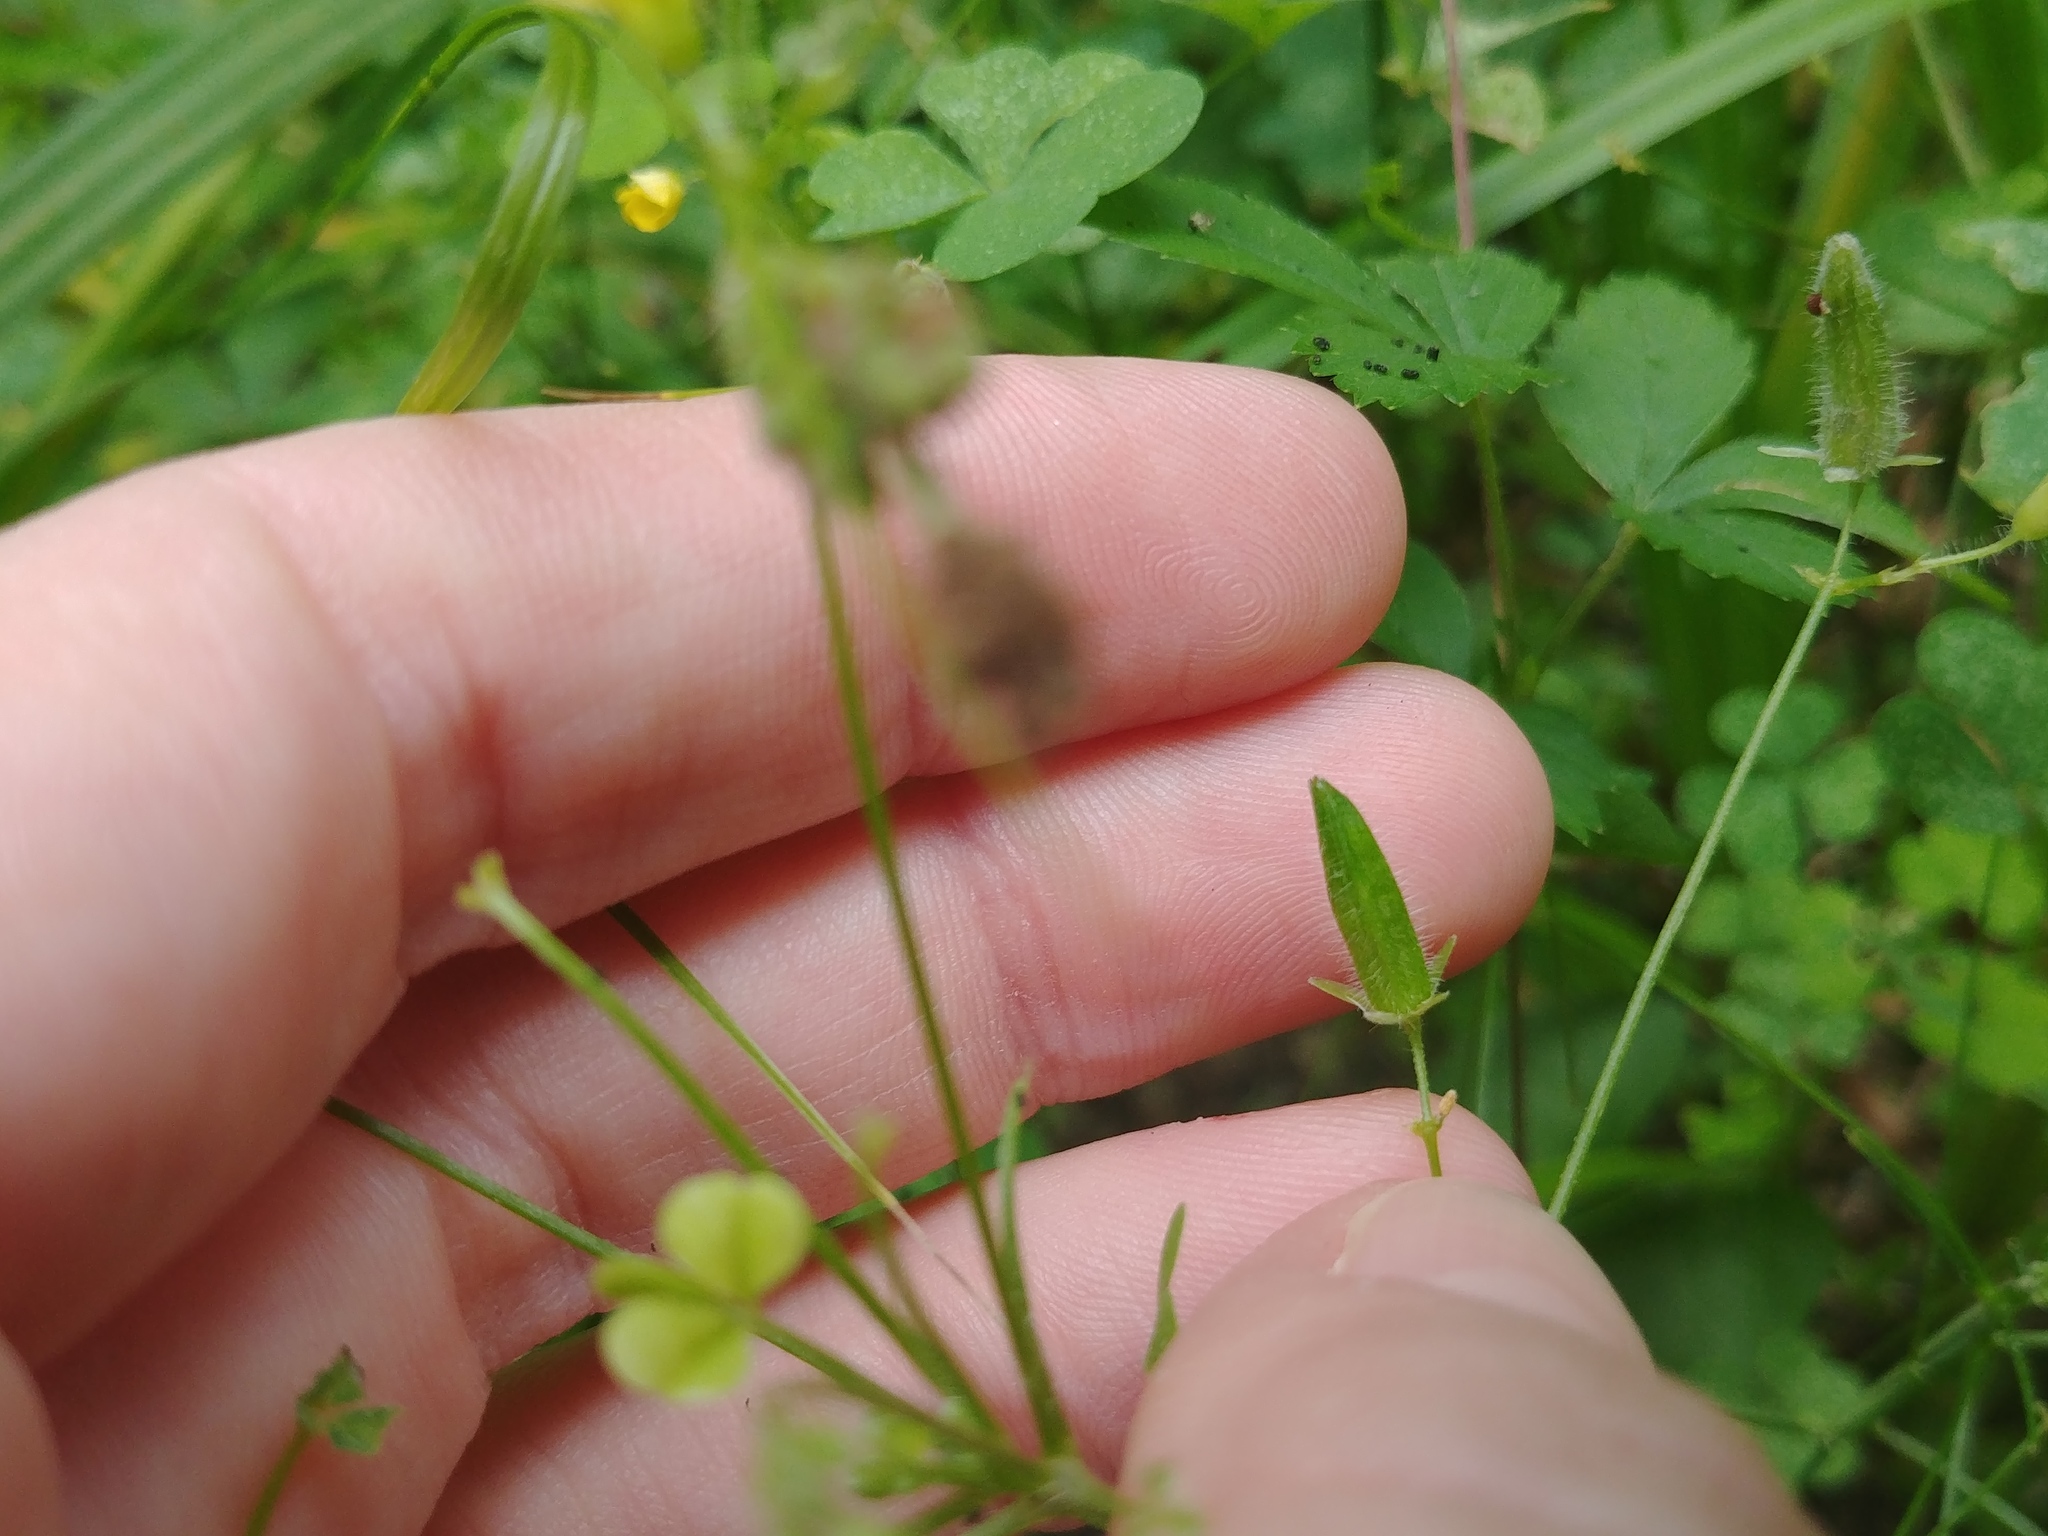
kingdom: Plantae
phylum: Tracheophyta
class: Magnoliopsida
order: Oxalidales
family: Oxalidaceae
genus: Oxalis
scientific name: Oxalis stricta
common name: Upright yellow-sorrel
